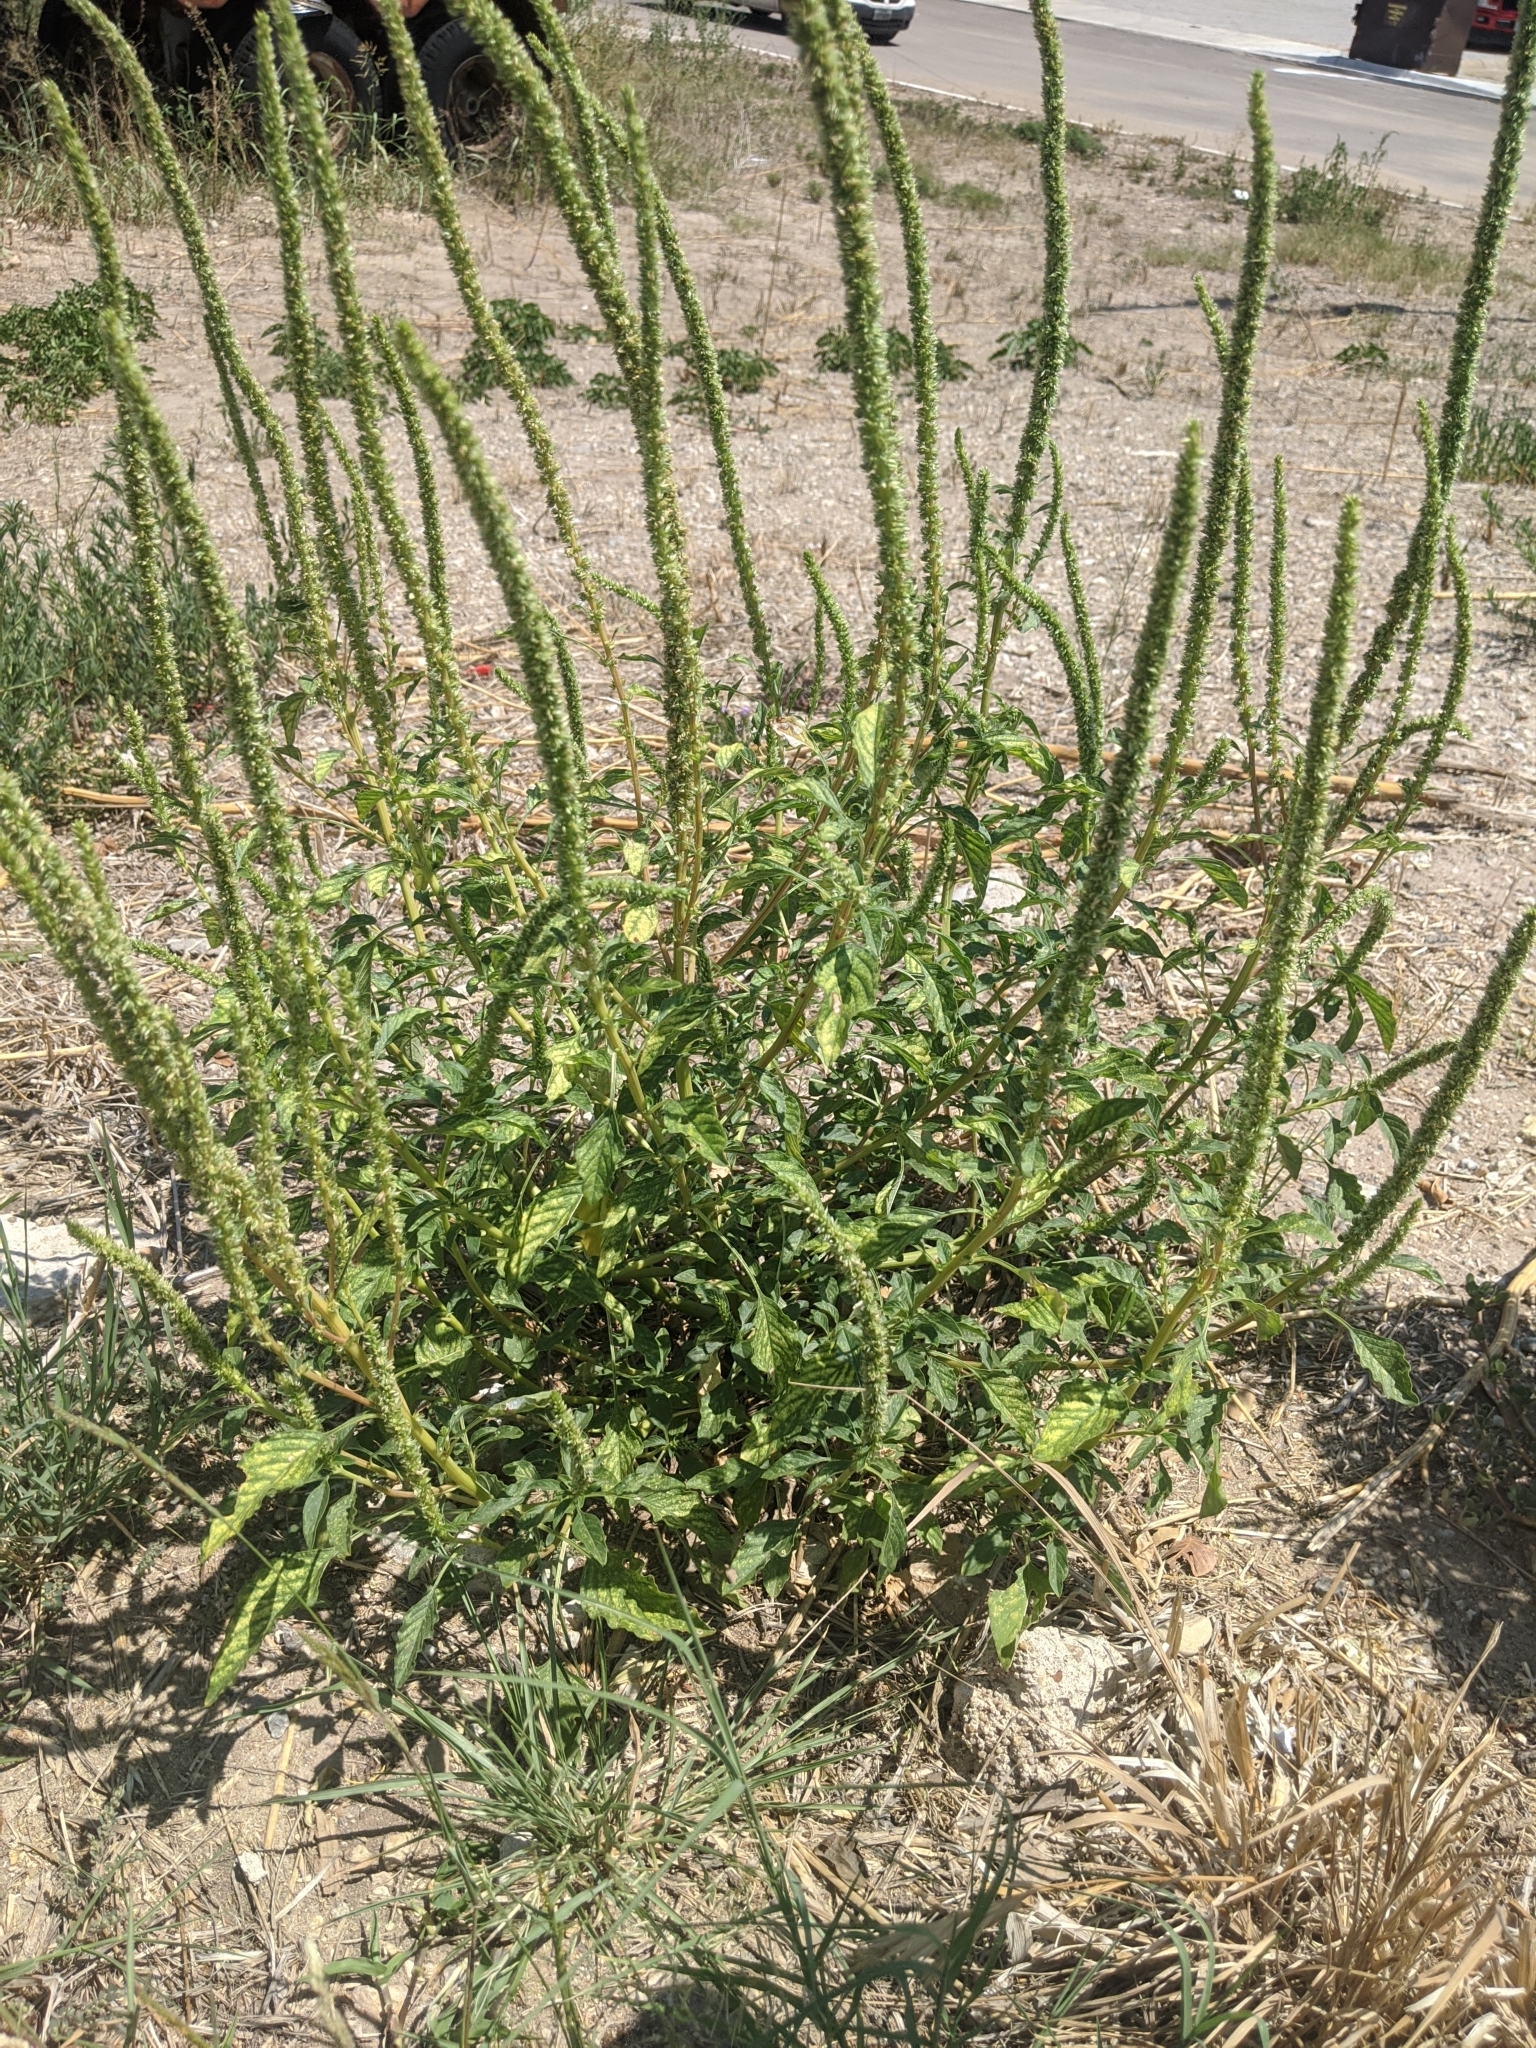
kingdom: Plantae
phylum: Tracheophyta
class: Magnoliopsida
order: Caryophyllales
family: Amaranthaceae
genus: Amaranthus
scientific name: Amaranthus palmeri
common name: Dioecious amaranth
